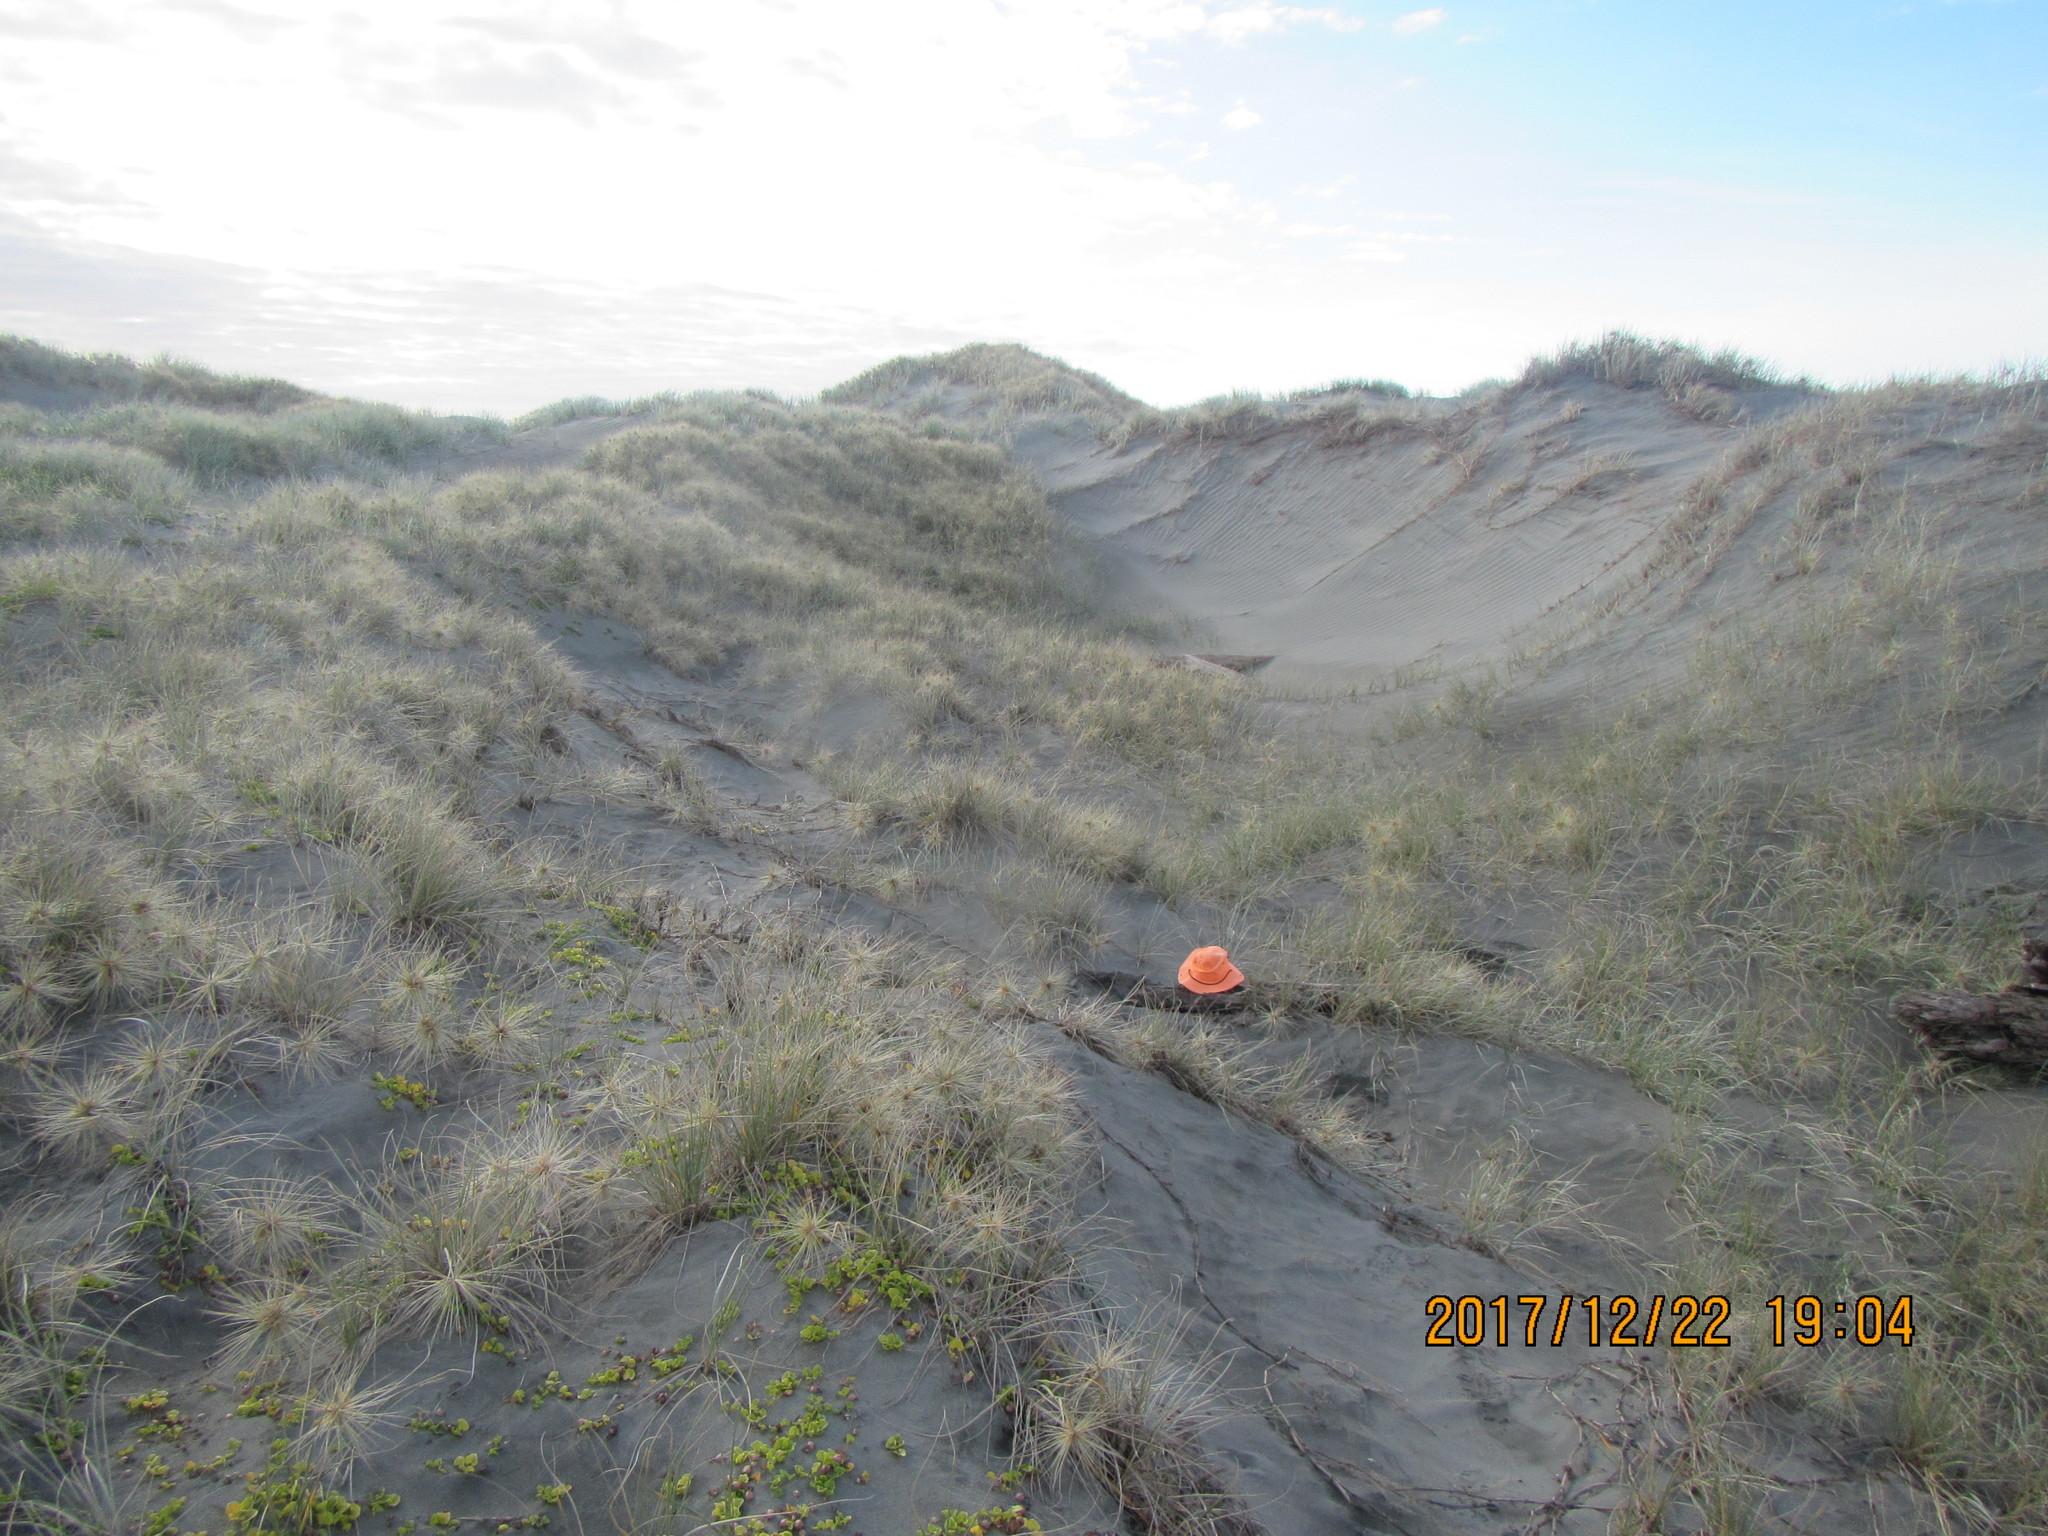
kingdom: Animalia
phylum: Arthropoda
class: Arachnida
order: Araneae
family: Theridiidae
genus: Steatoda
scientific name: Steatoda capensis
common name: Cobweb weaver
